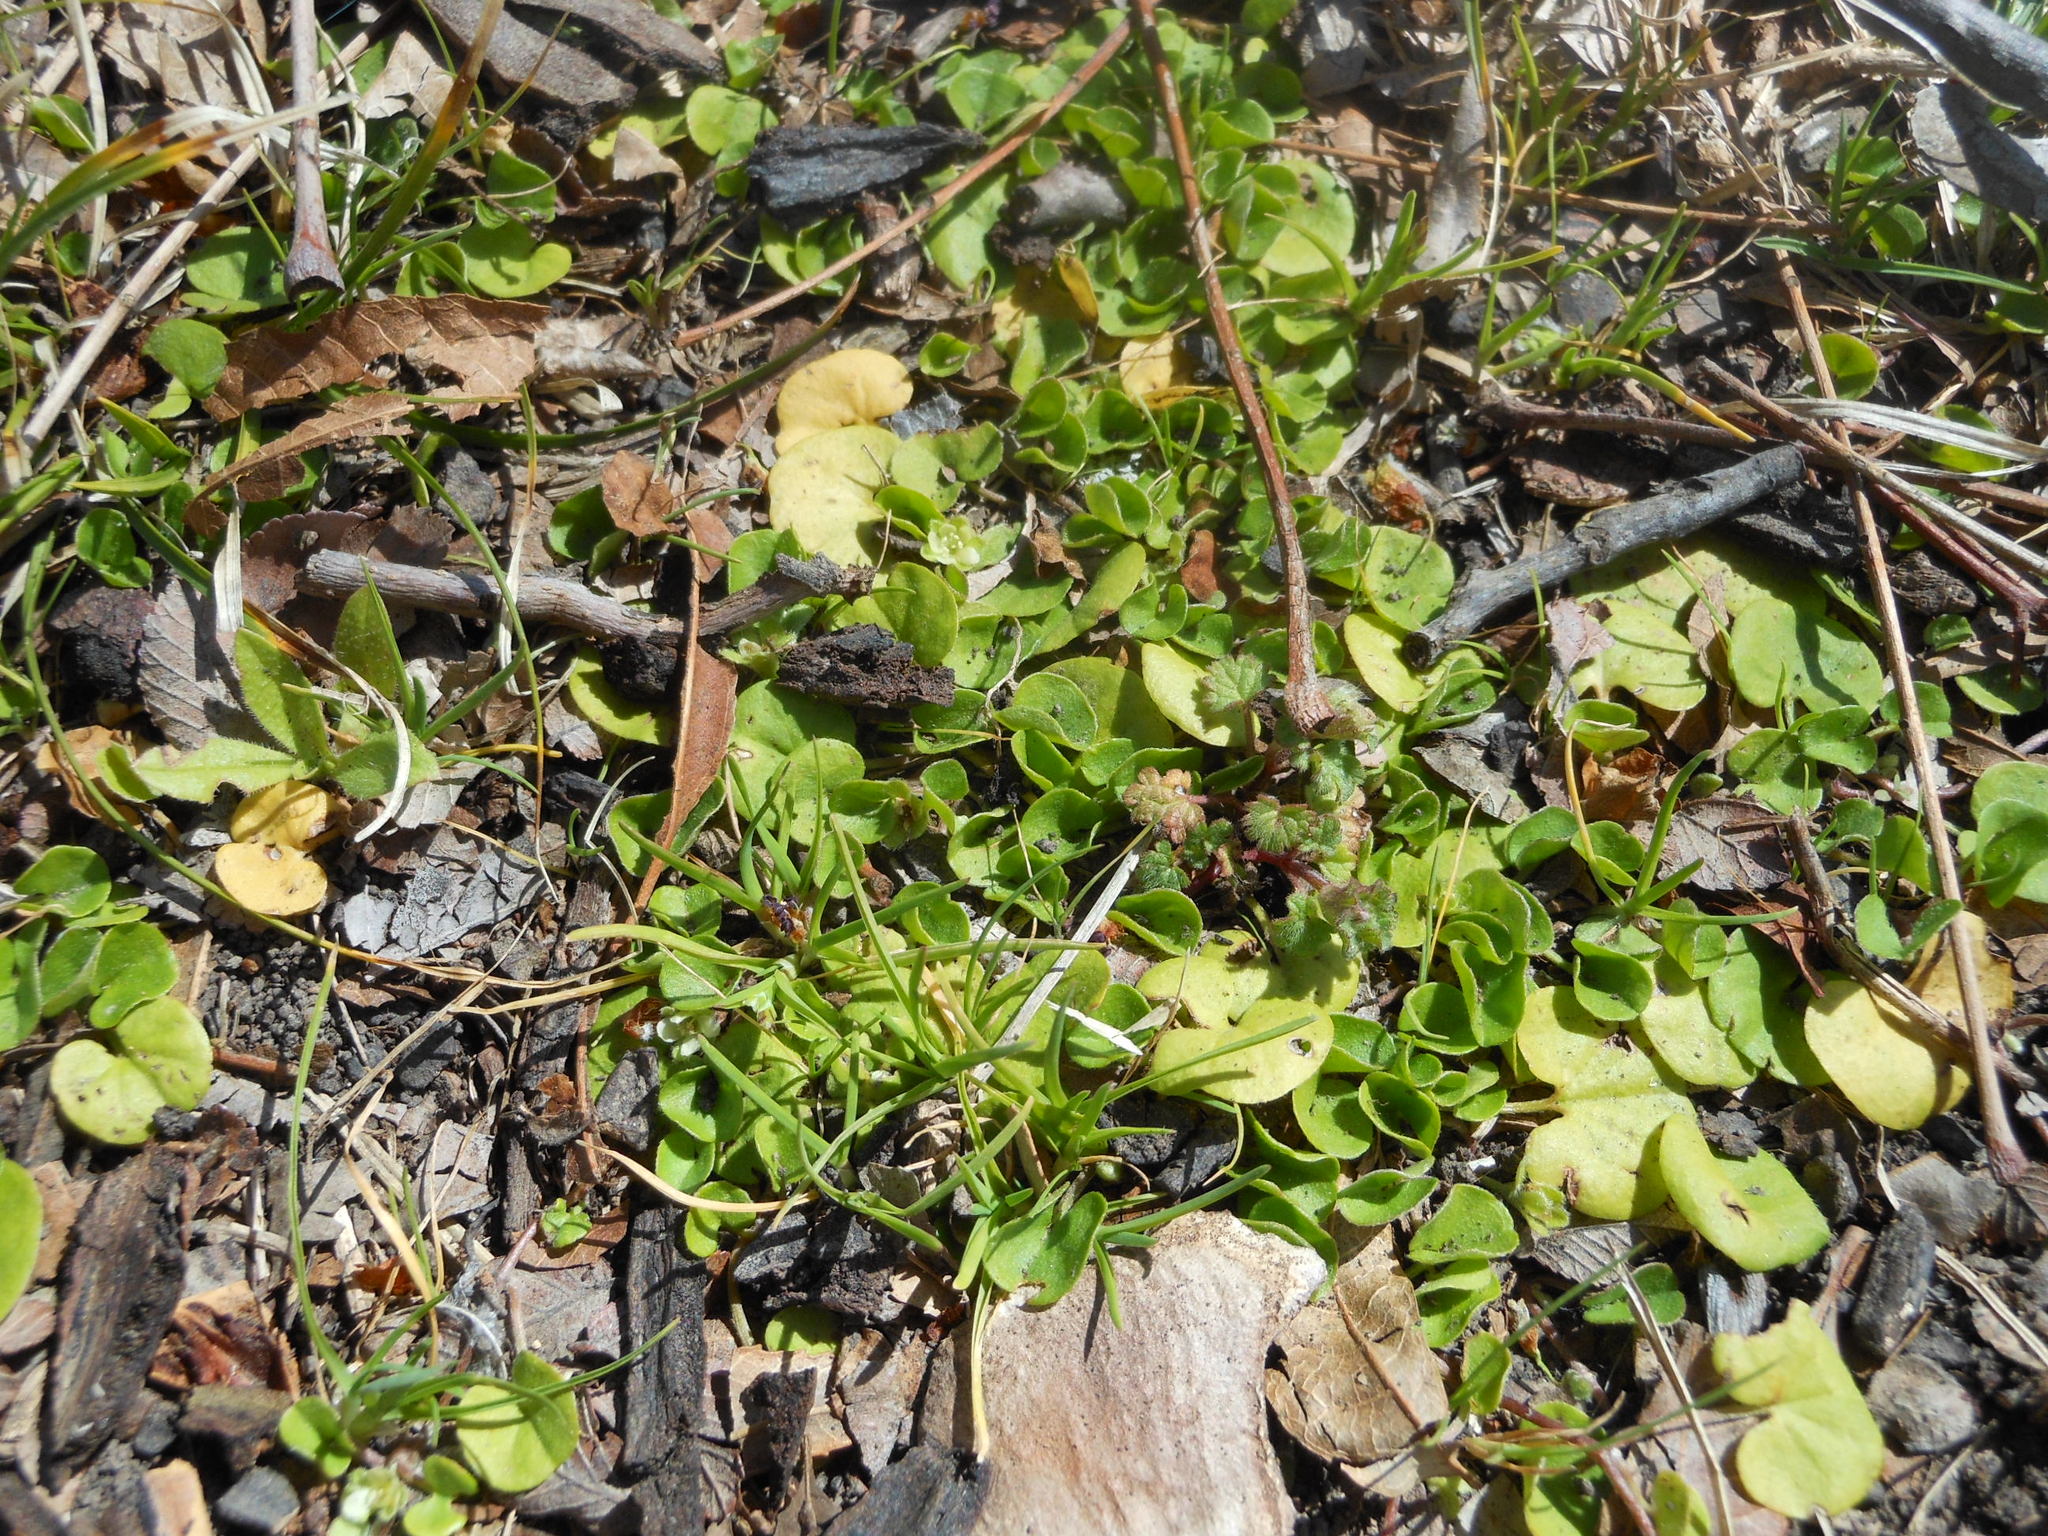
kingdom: Plantae
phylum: Tracheophyta
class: Magnoliopsida
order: Solanales
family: Convolvulaceae
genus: Dichondra
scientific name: Dichondra carolinensis
